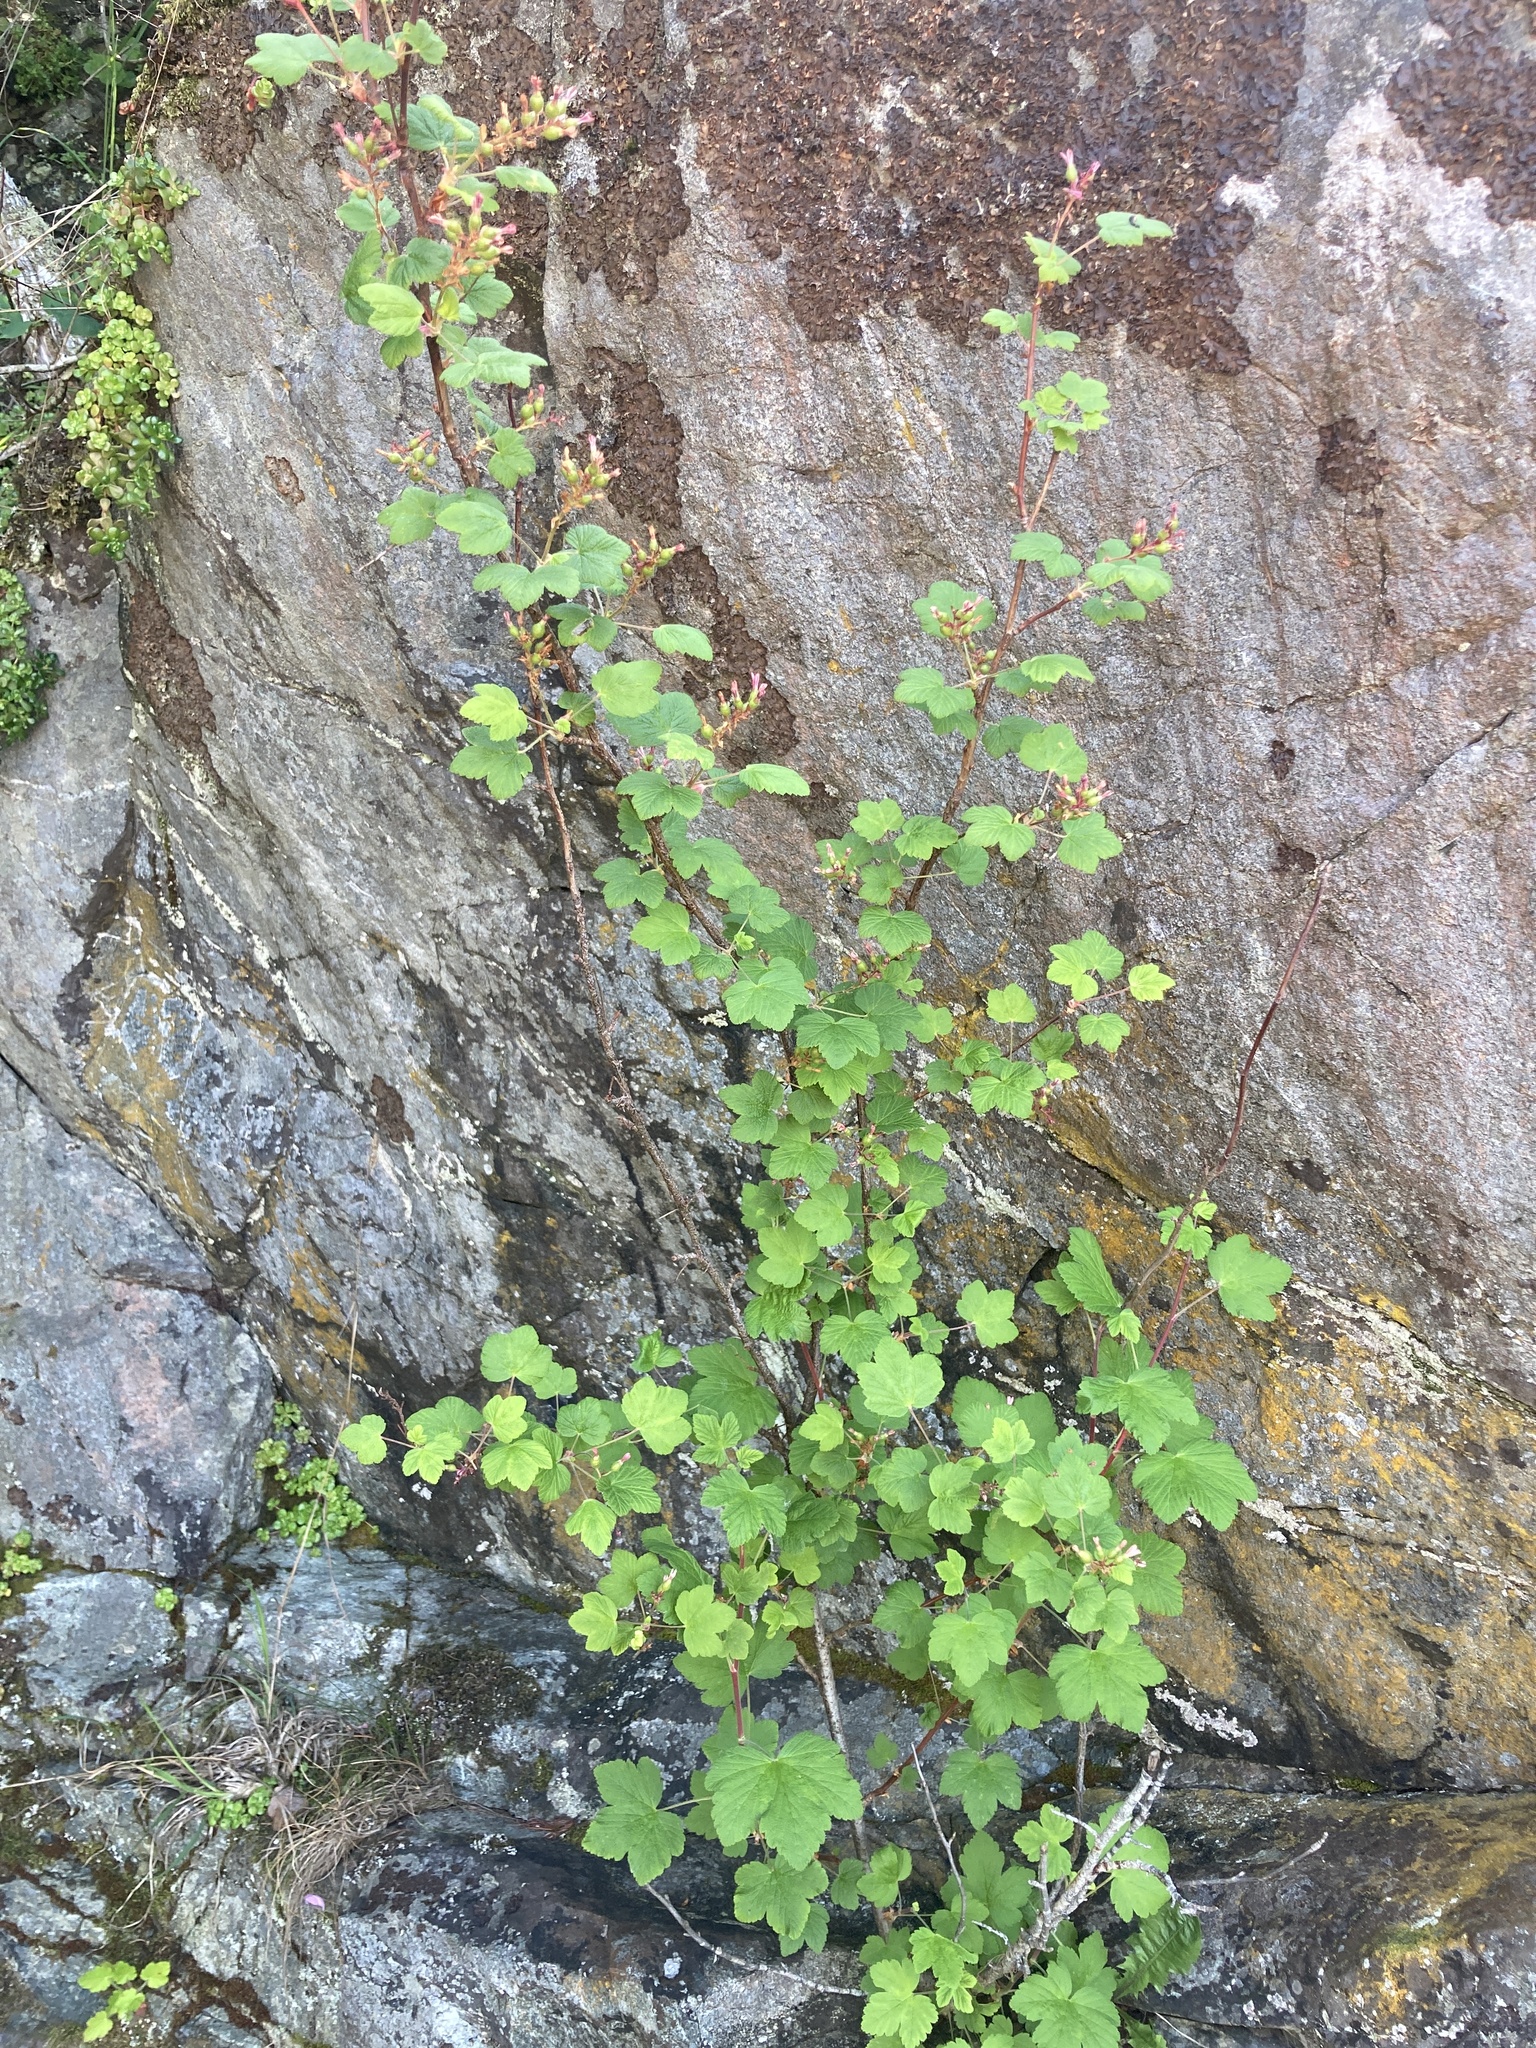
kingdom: Plantae
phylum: Tracheophyta
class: Magnoliopsida
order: Saxifragales
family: Grossulariaceae
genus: Ribes
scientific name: Ribes sanguineum
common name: Flowering currant
